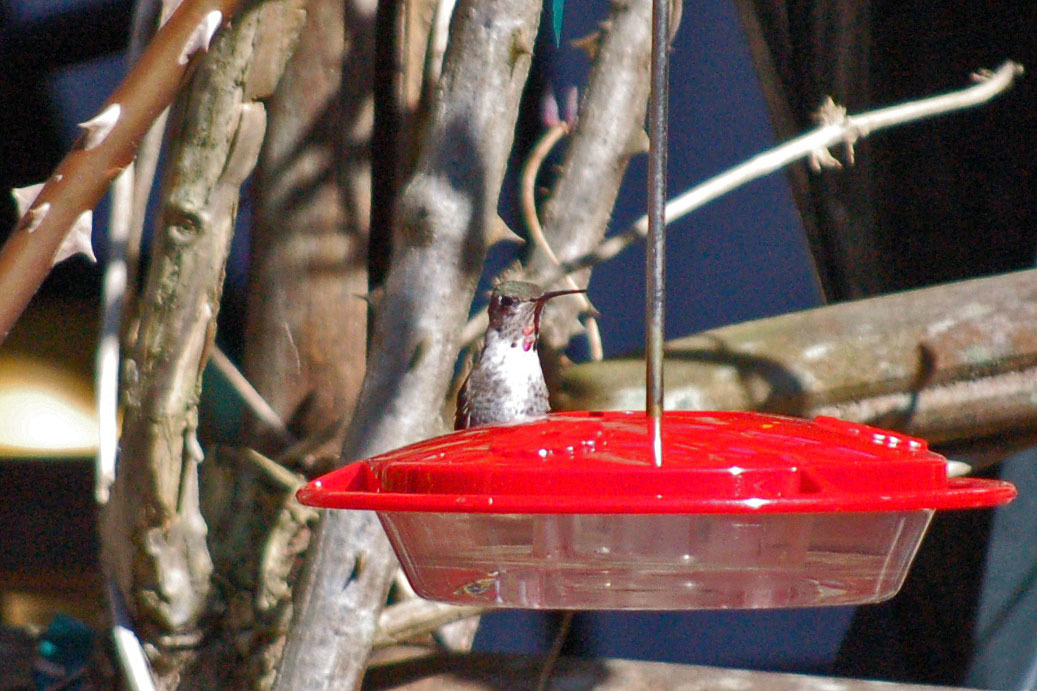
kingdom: Animalia
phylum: Chordata
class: Aves
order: Apodiformes
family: Trochilidae
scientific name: Trochilidae
